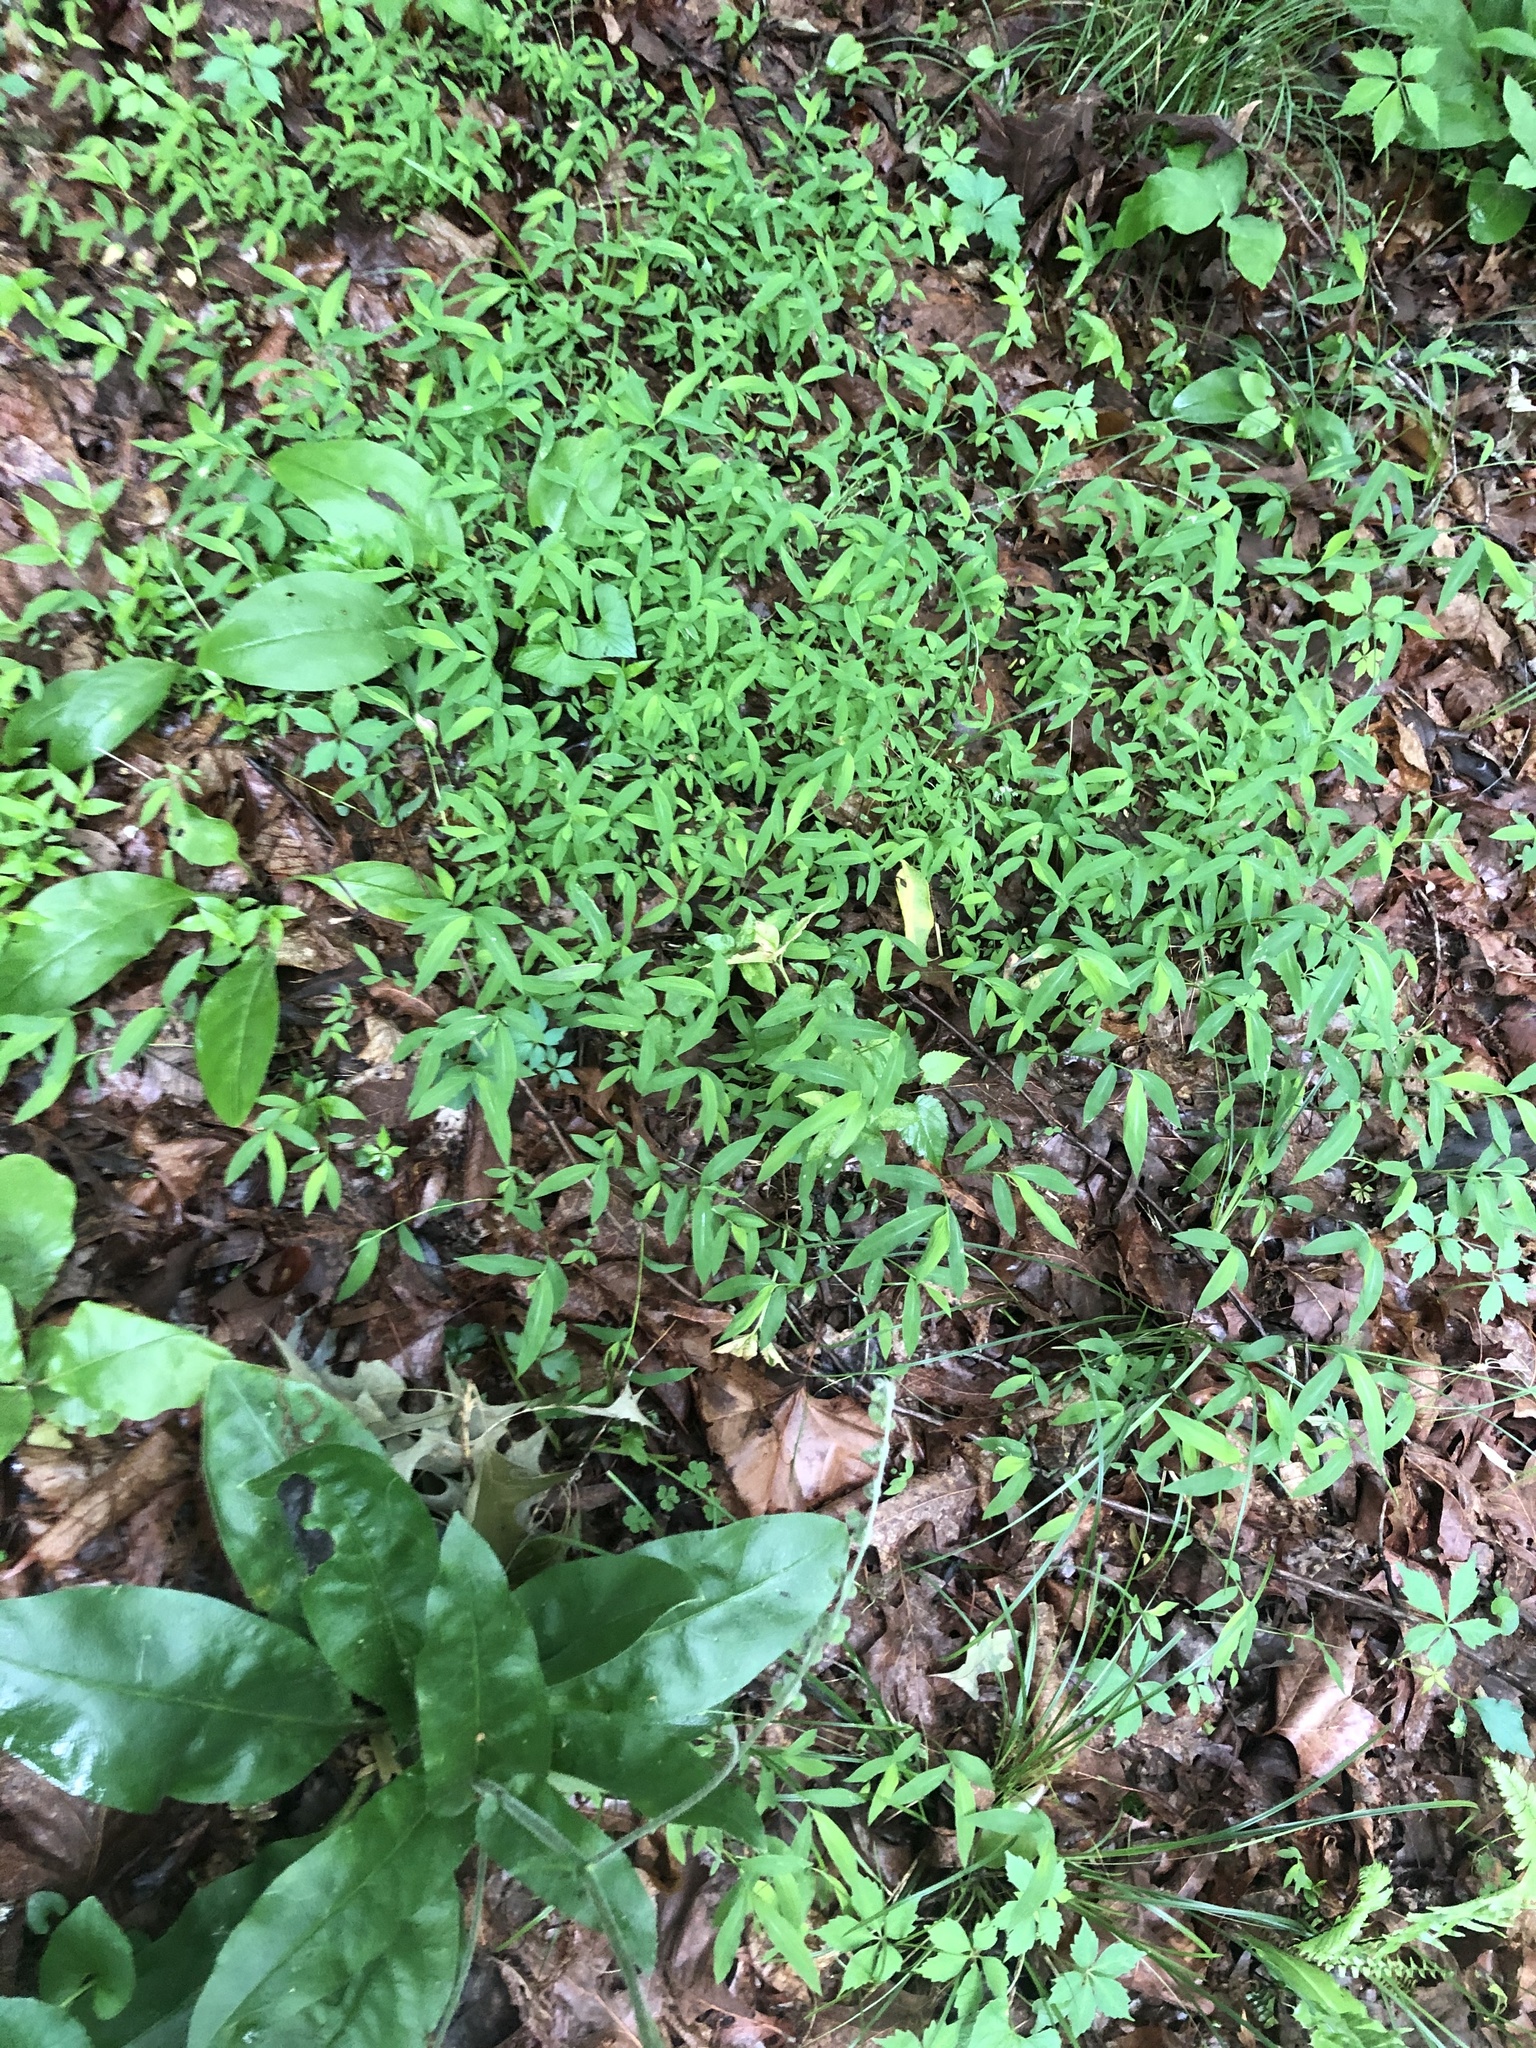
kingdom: Plantae
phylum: Tracheophyta
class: Liliopsida
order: Poales
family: Poaceae
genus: Microstegium
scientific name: Microstegium vimineum
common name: Japanese stiltgrass
